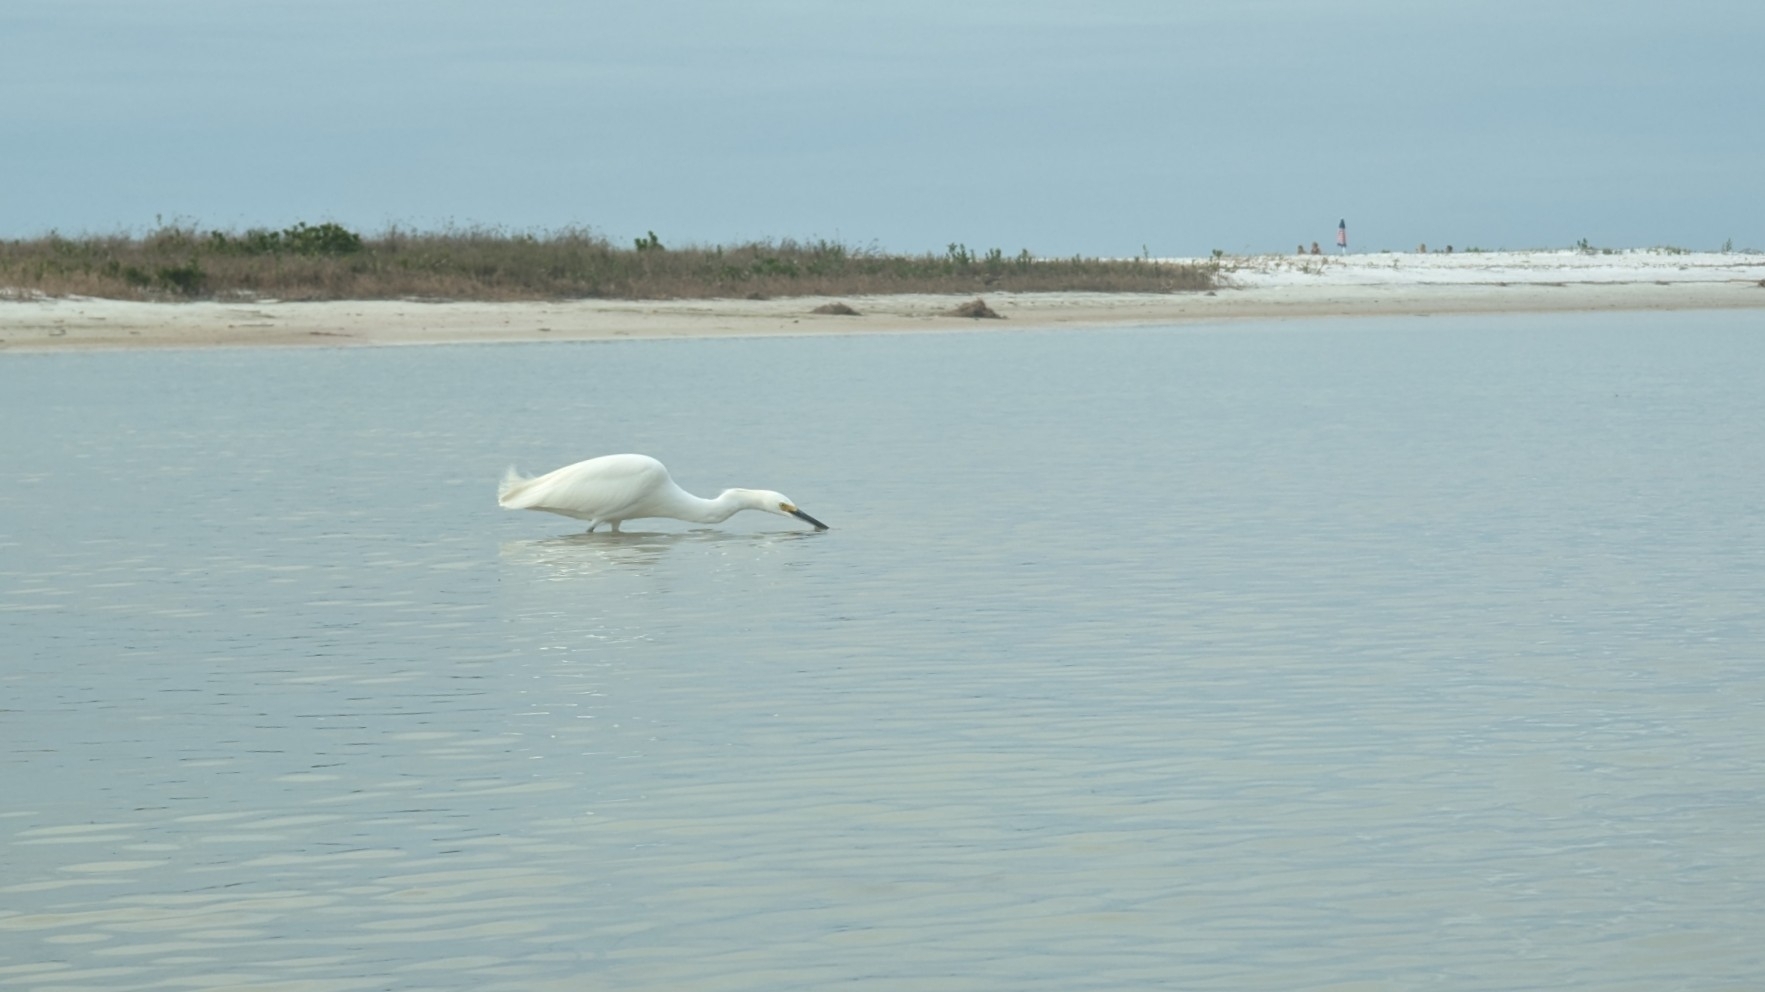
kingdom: Animalia
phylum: Chordata
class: Aves
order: Pelecaniformes
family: Ardeidae
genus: Egretta
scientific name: Egretta thula
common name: Snowy egret
